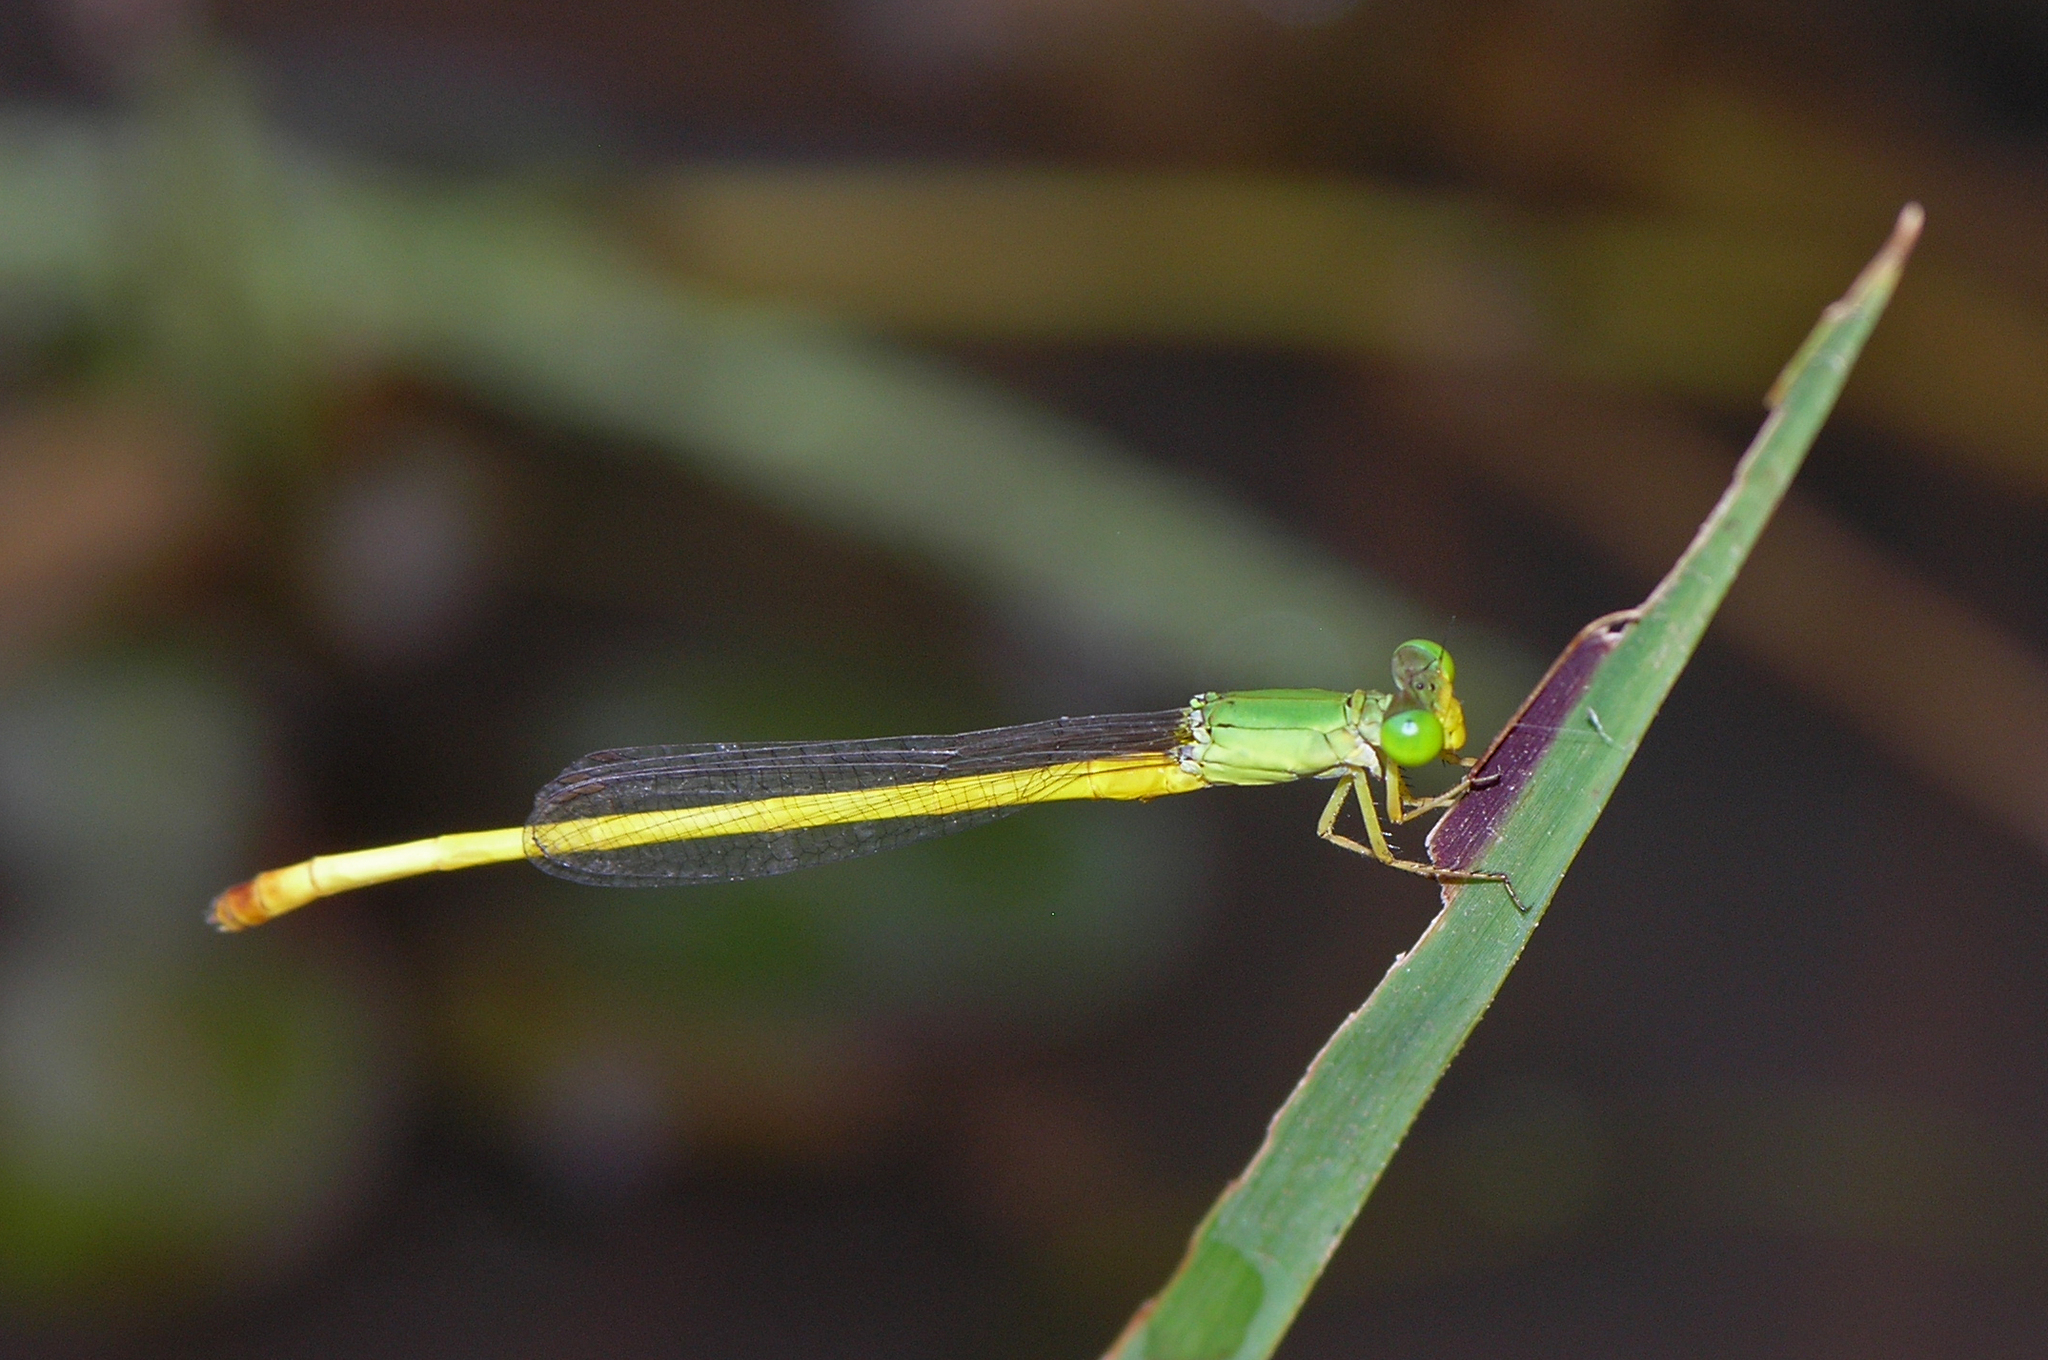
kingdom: Animalia
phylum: Arthropoda
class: Insecta
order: Odonata
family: Coenagrionidae
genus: Ceriagrion
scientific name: Ceriagrion indochinense
